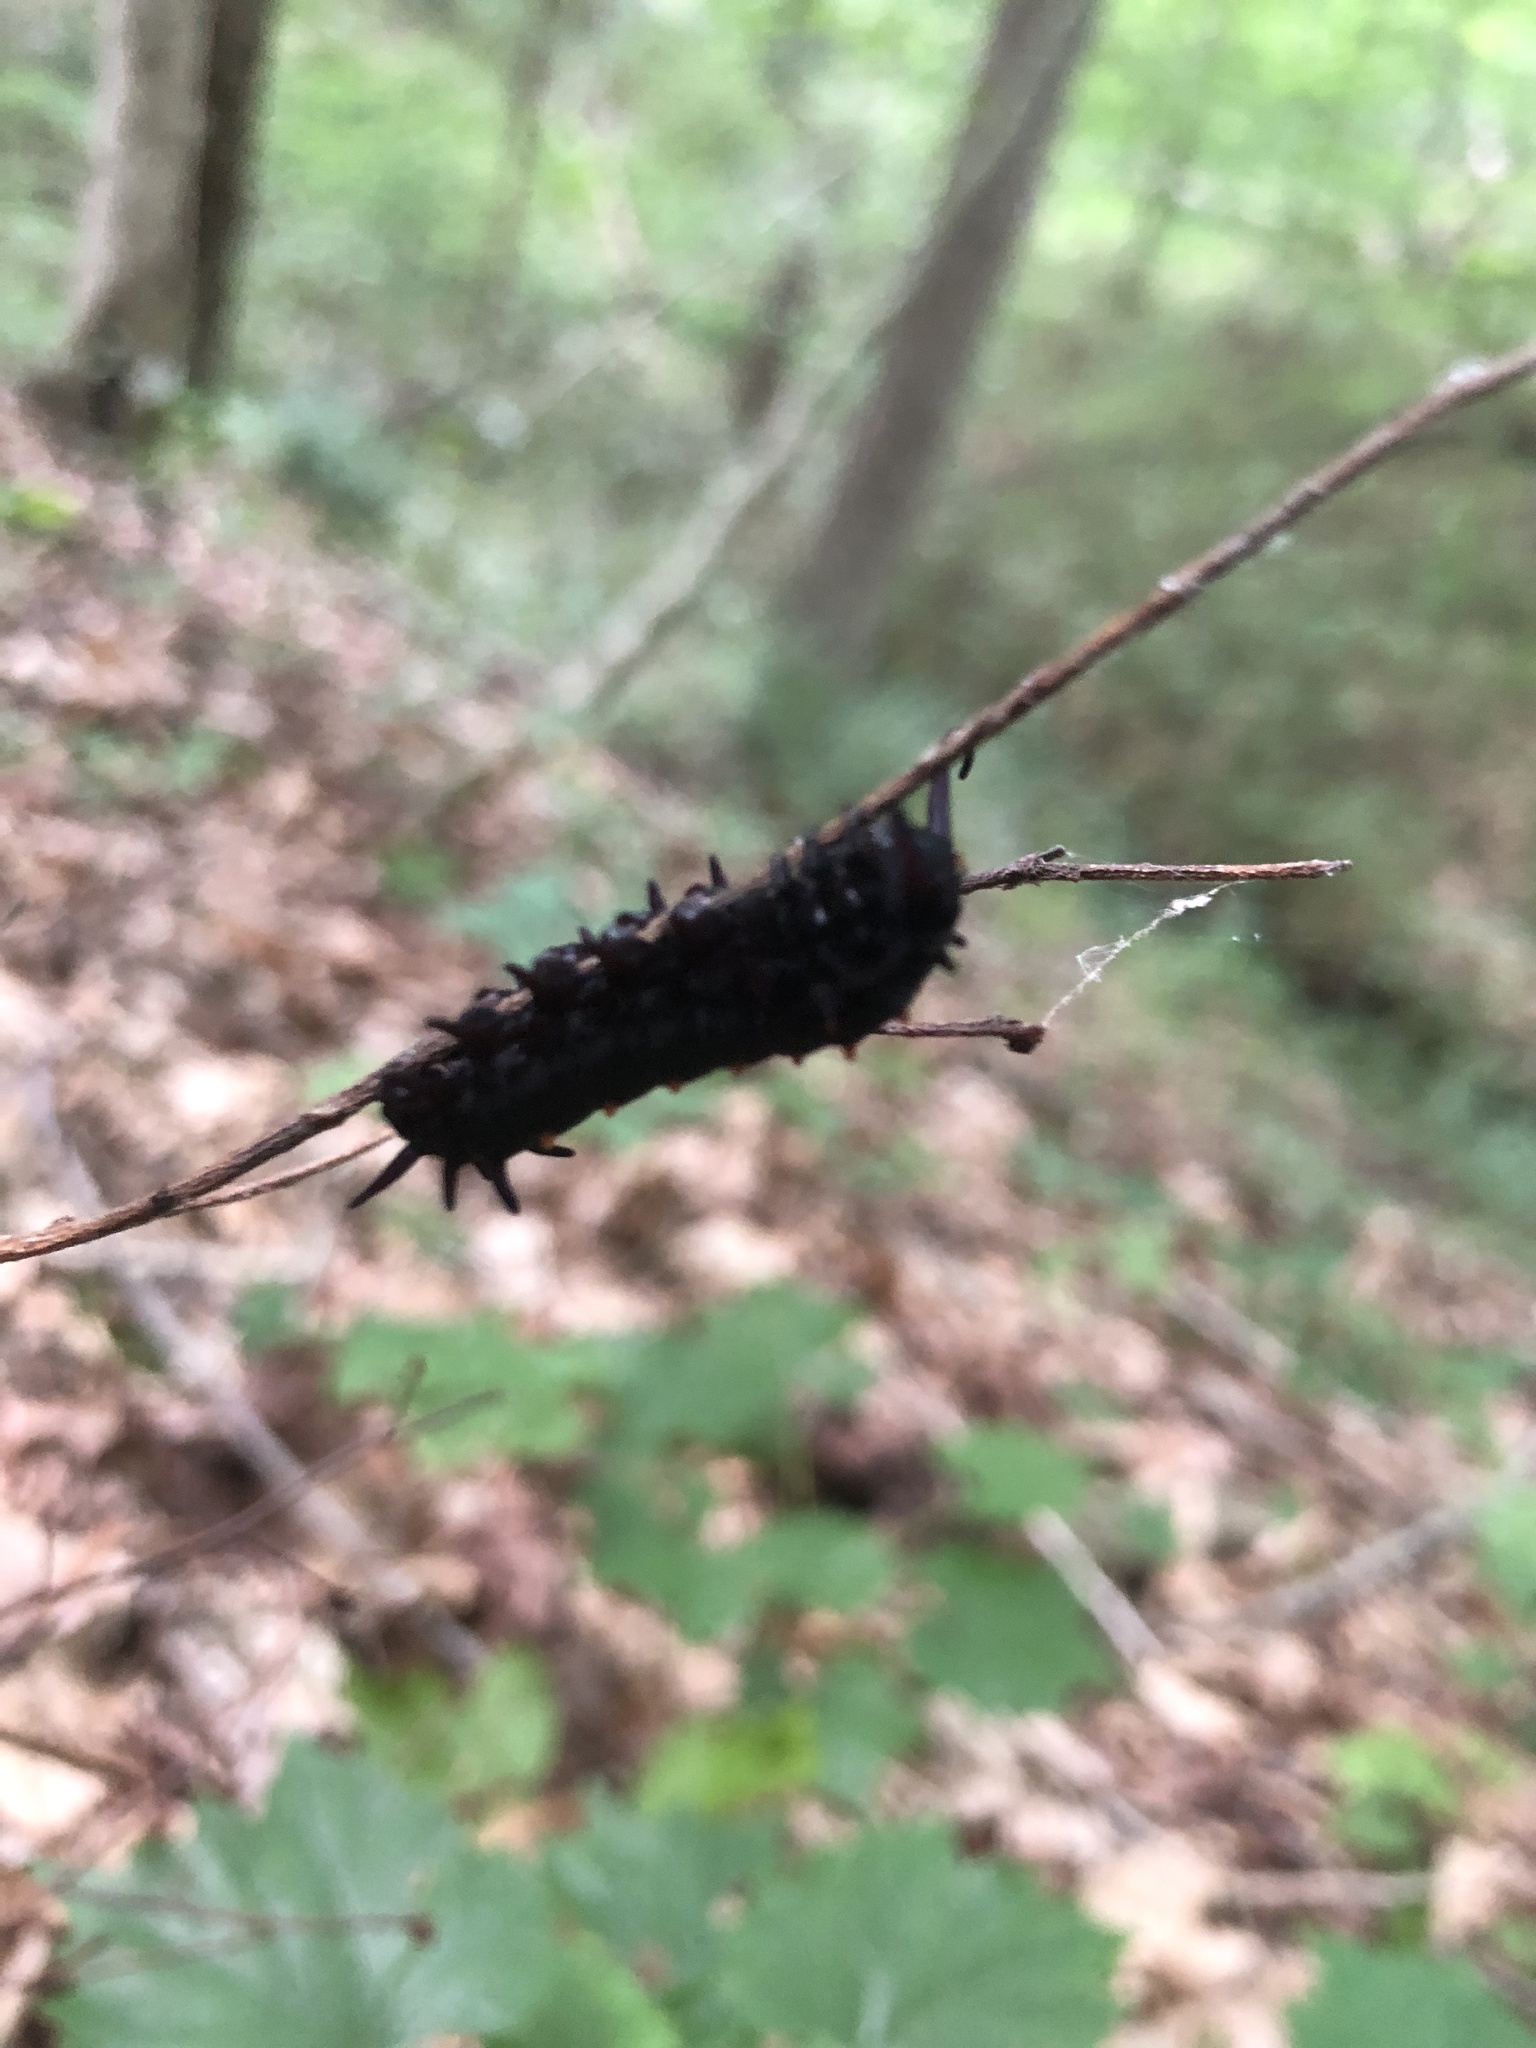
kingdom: Animalia
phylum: Arthropoda
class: Insecta
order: Lepidoptera
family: Papilionidae
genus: Battus
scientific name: Battus philenor
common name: Pipevine swallowtail
